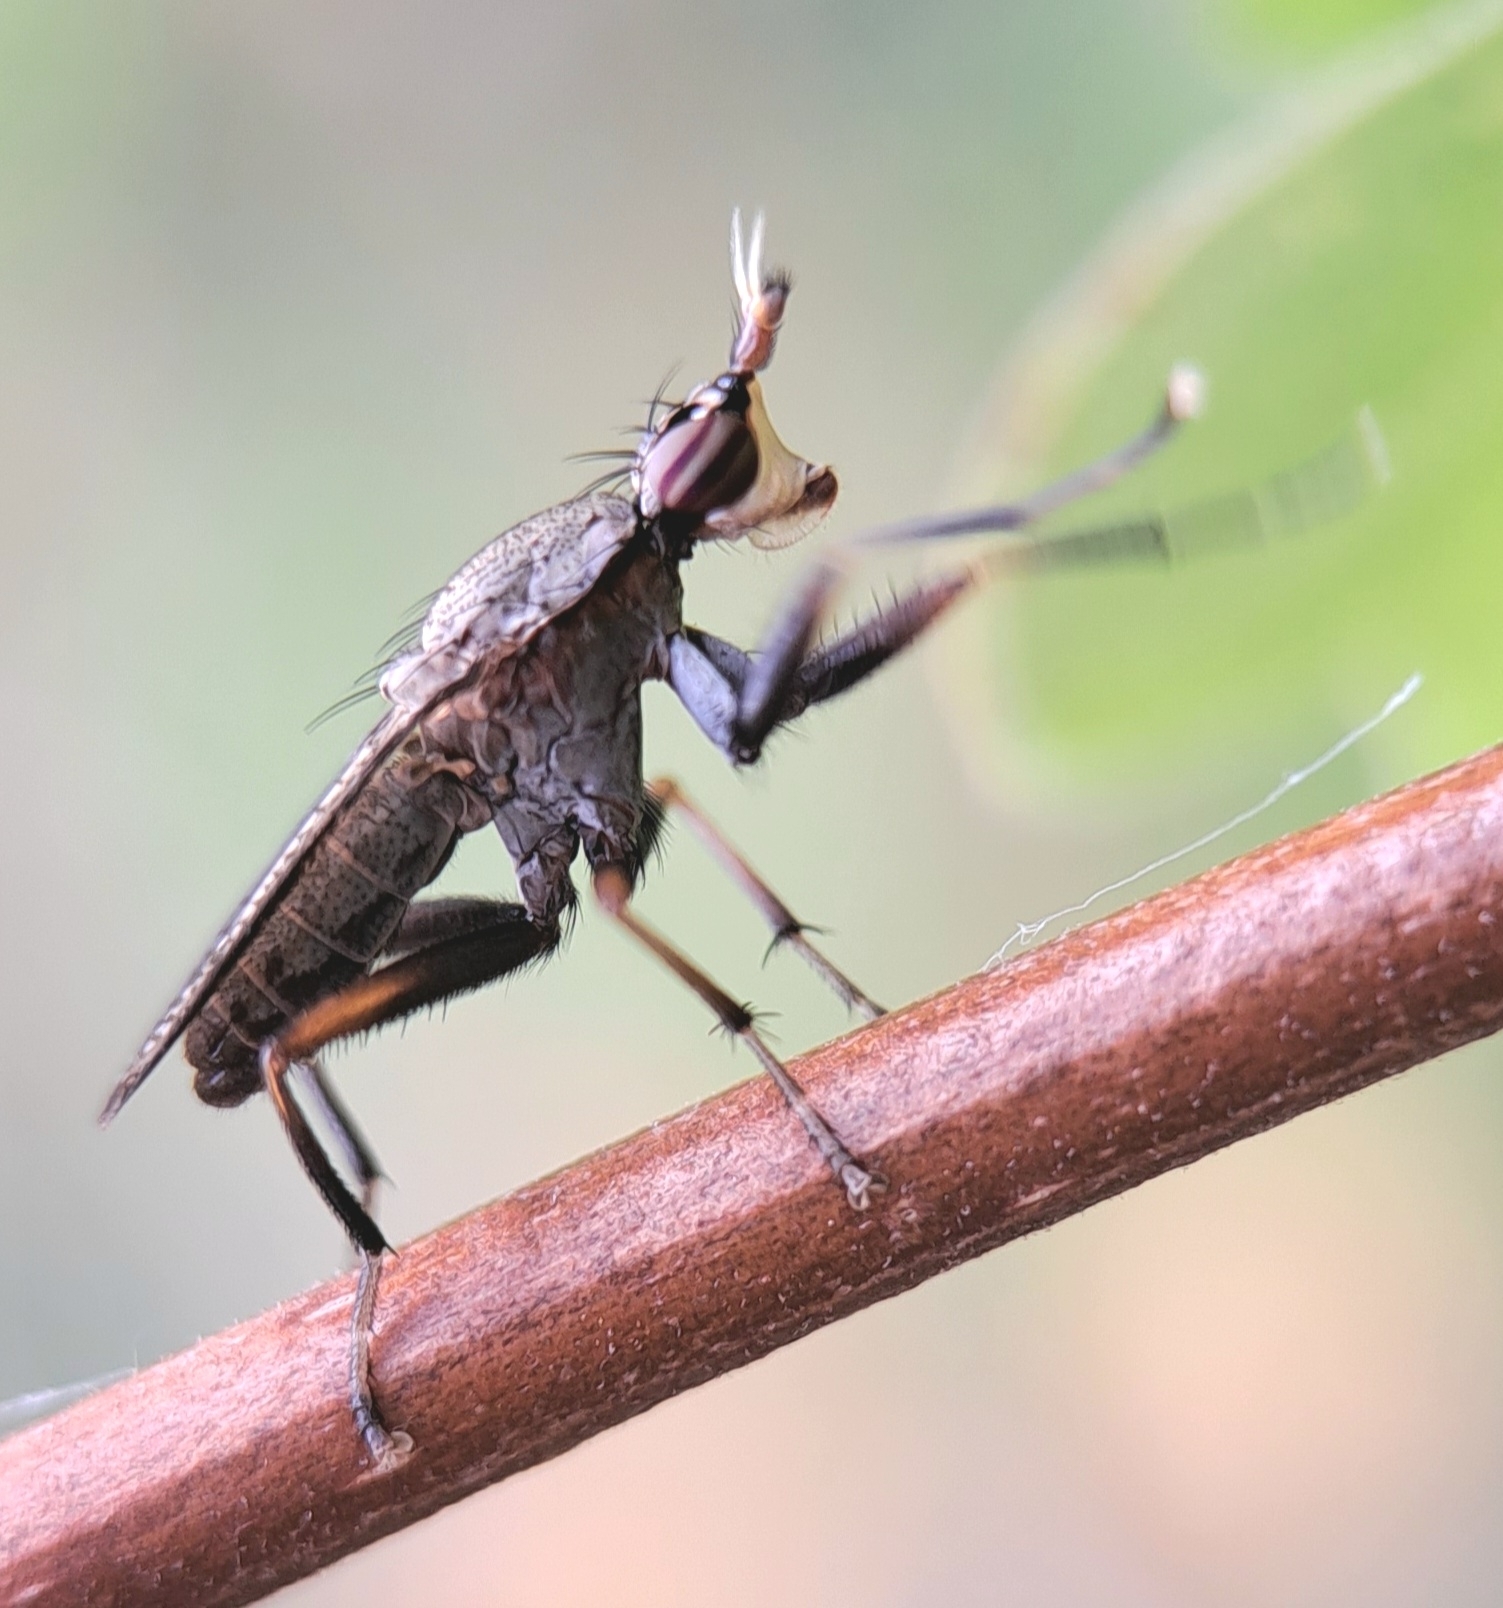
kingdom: Animalia
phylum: Arthropoda
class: Insecta
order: Diptera
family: Sciomyzidae
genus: Coremacera
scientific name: Coremacera marginata
